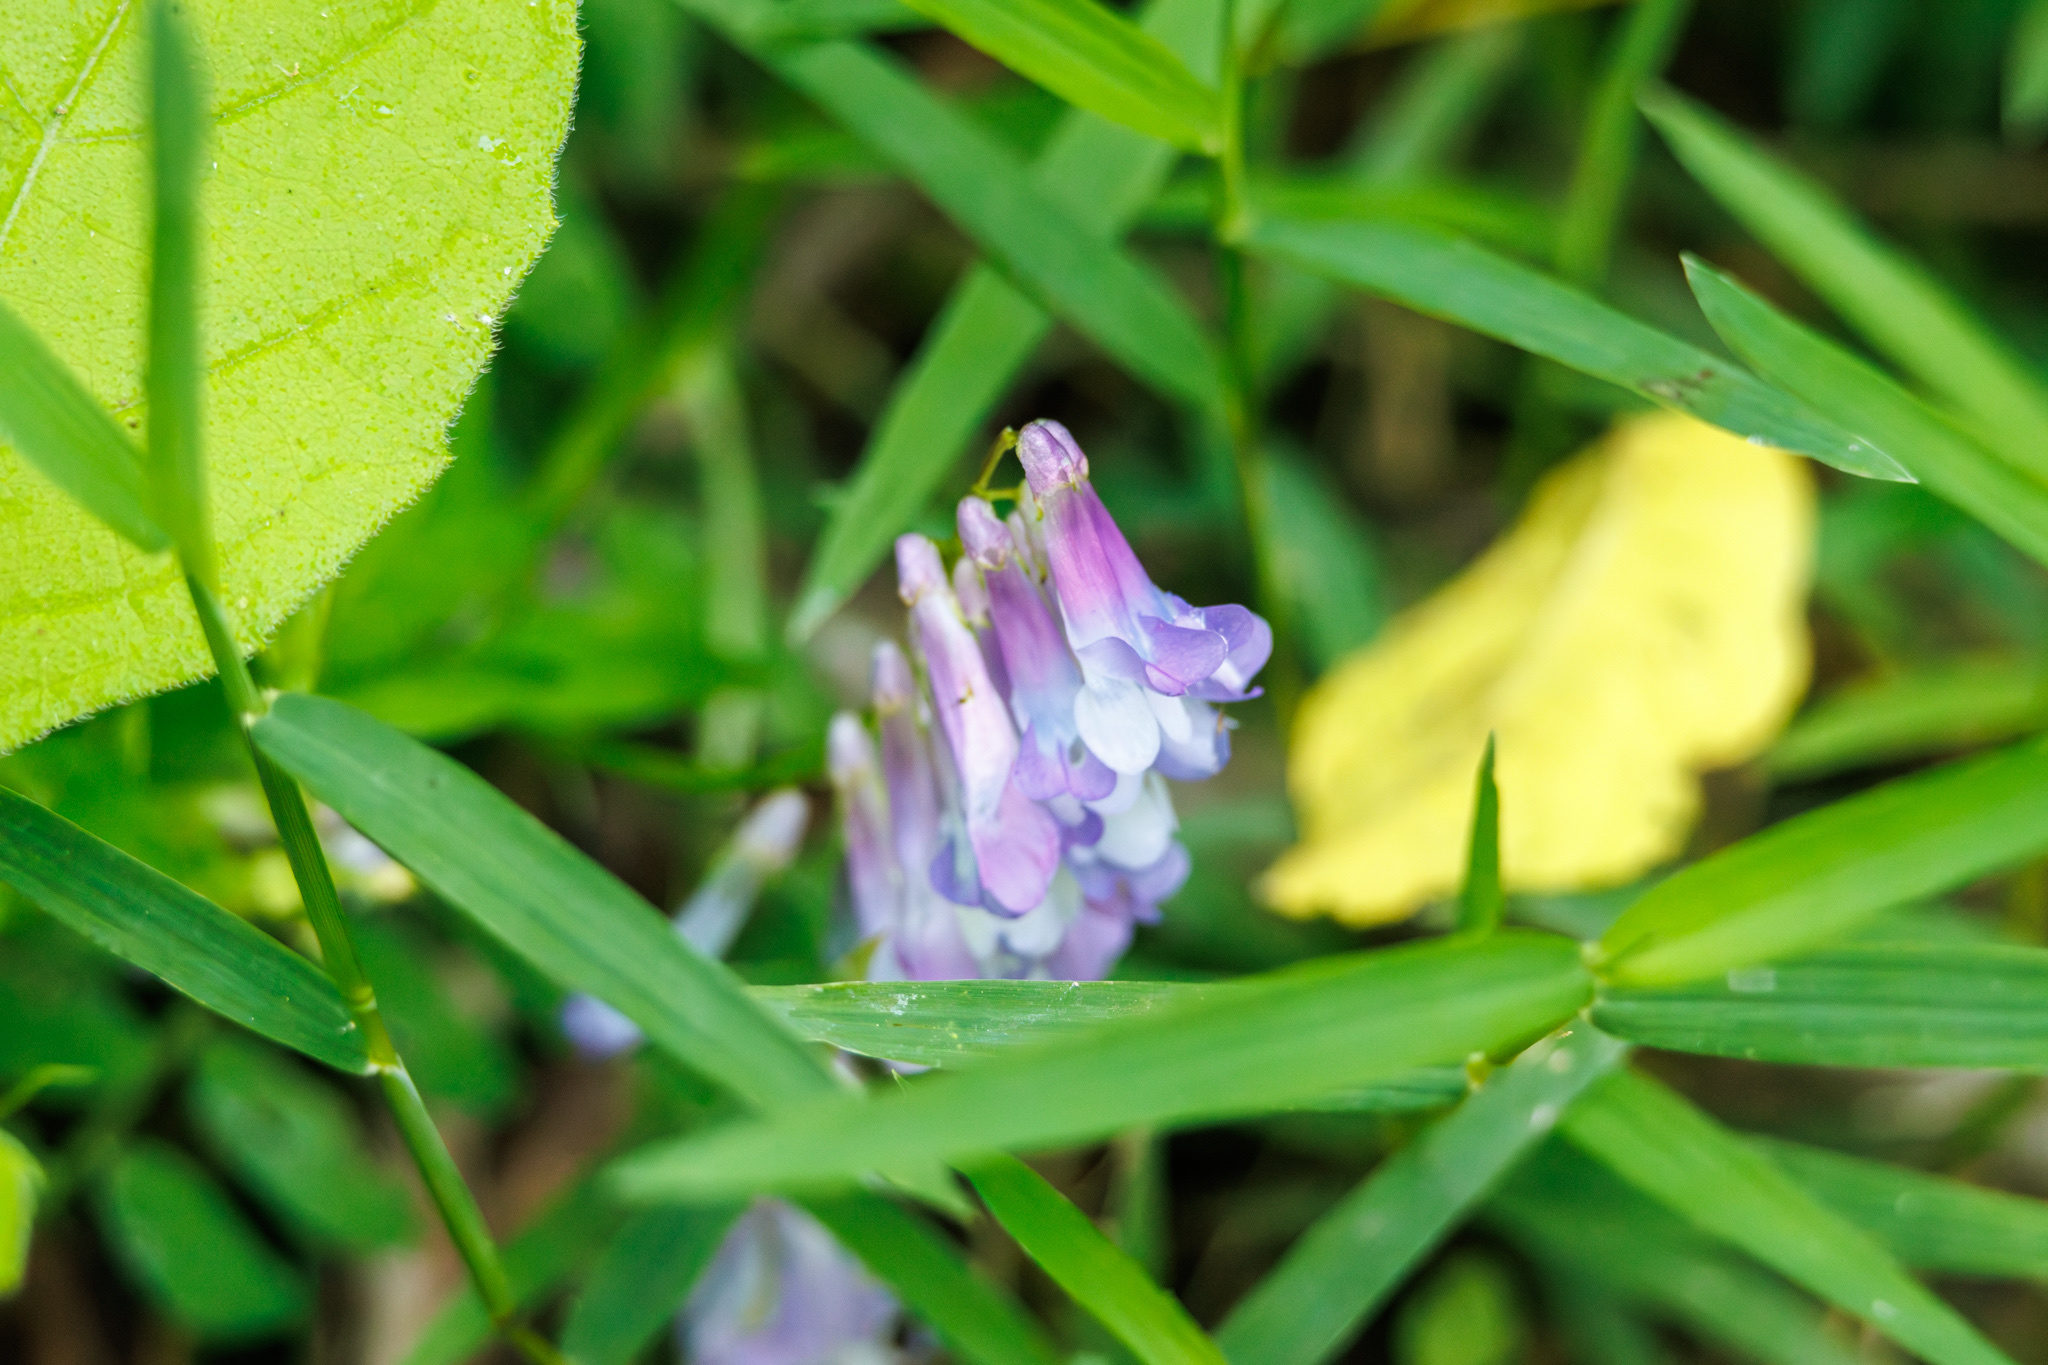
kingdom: Plantae
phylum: Tracheophyta
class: Magnoliopsida
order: Fabales
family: Fabaceae
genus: Vicia
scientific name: Vicia villosa
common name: Fodder vetch
